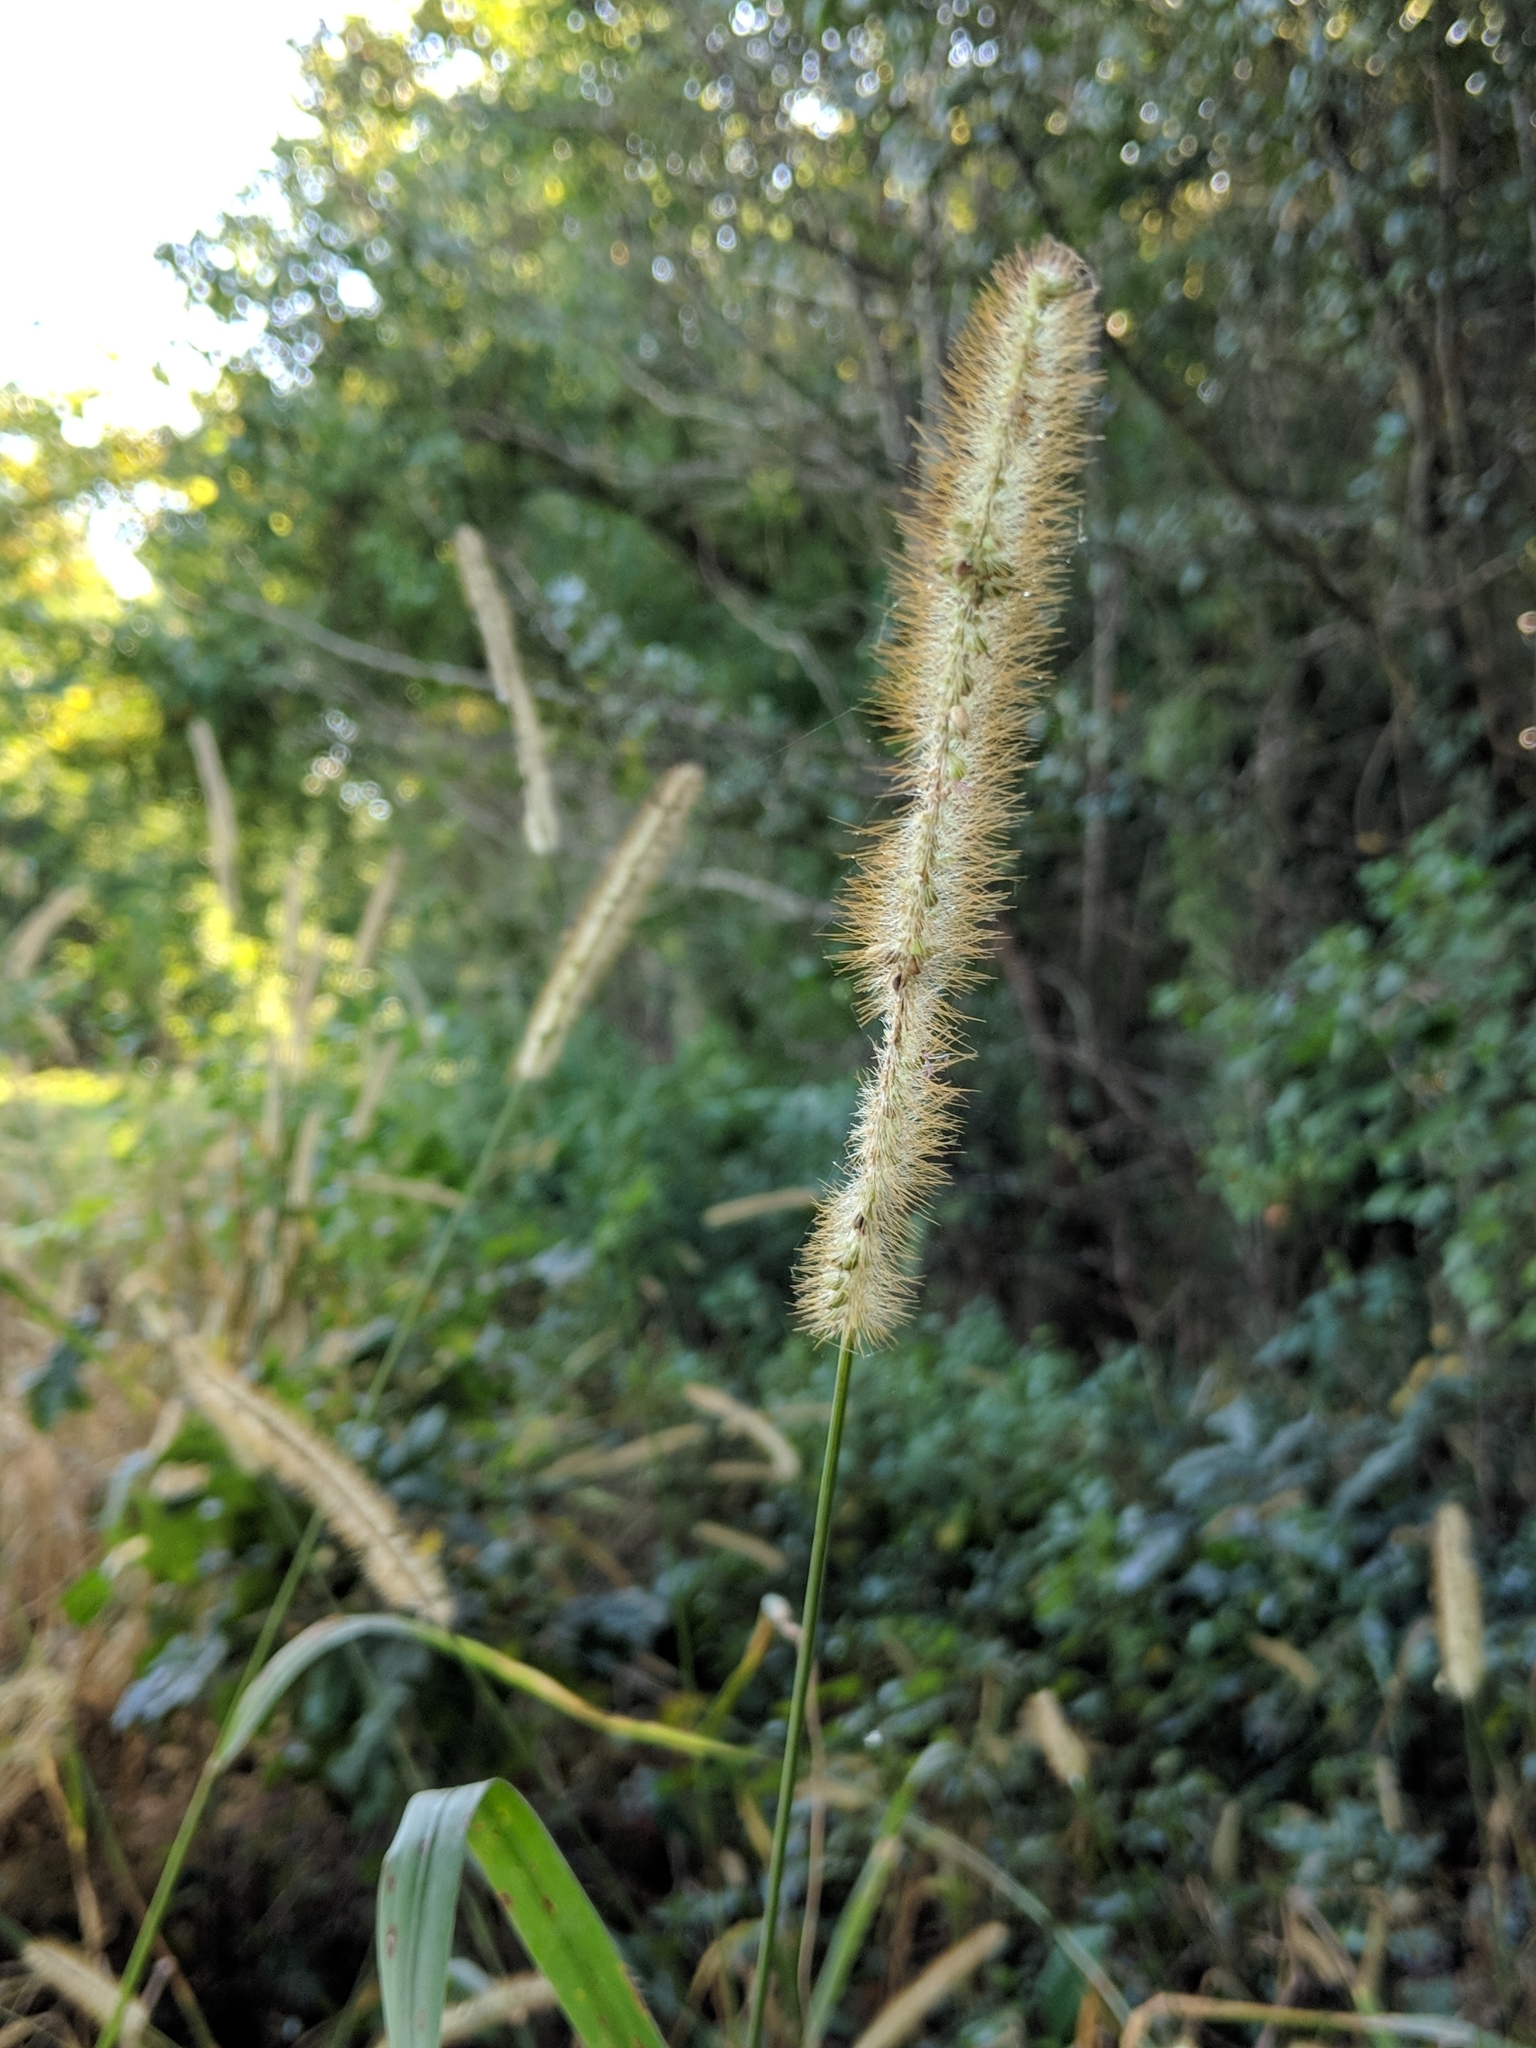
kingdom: Plantae
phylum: Tracheophyta
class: Liliopsida
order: Poales
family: Poaceae
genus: Setaria
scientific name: Setaria pumila
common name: Yellow bristle-grass
